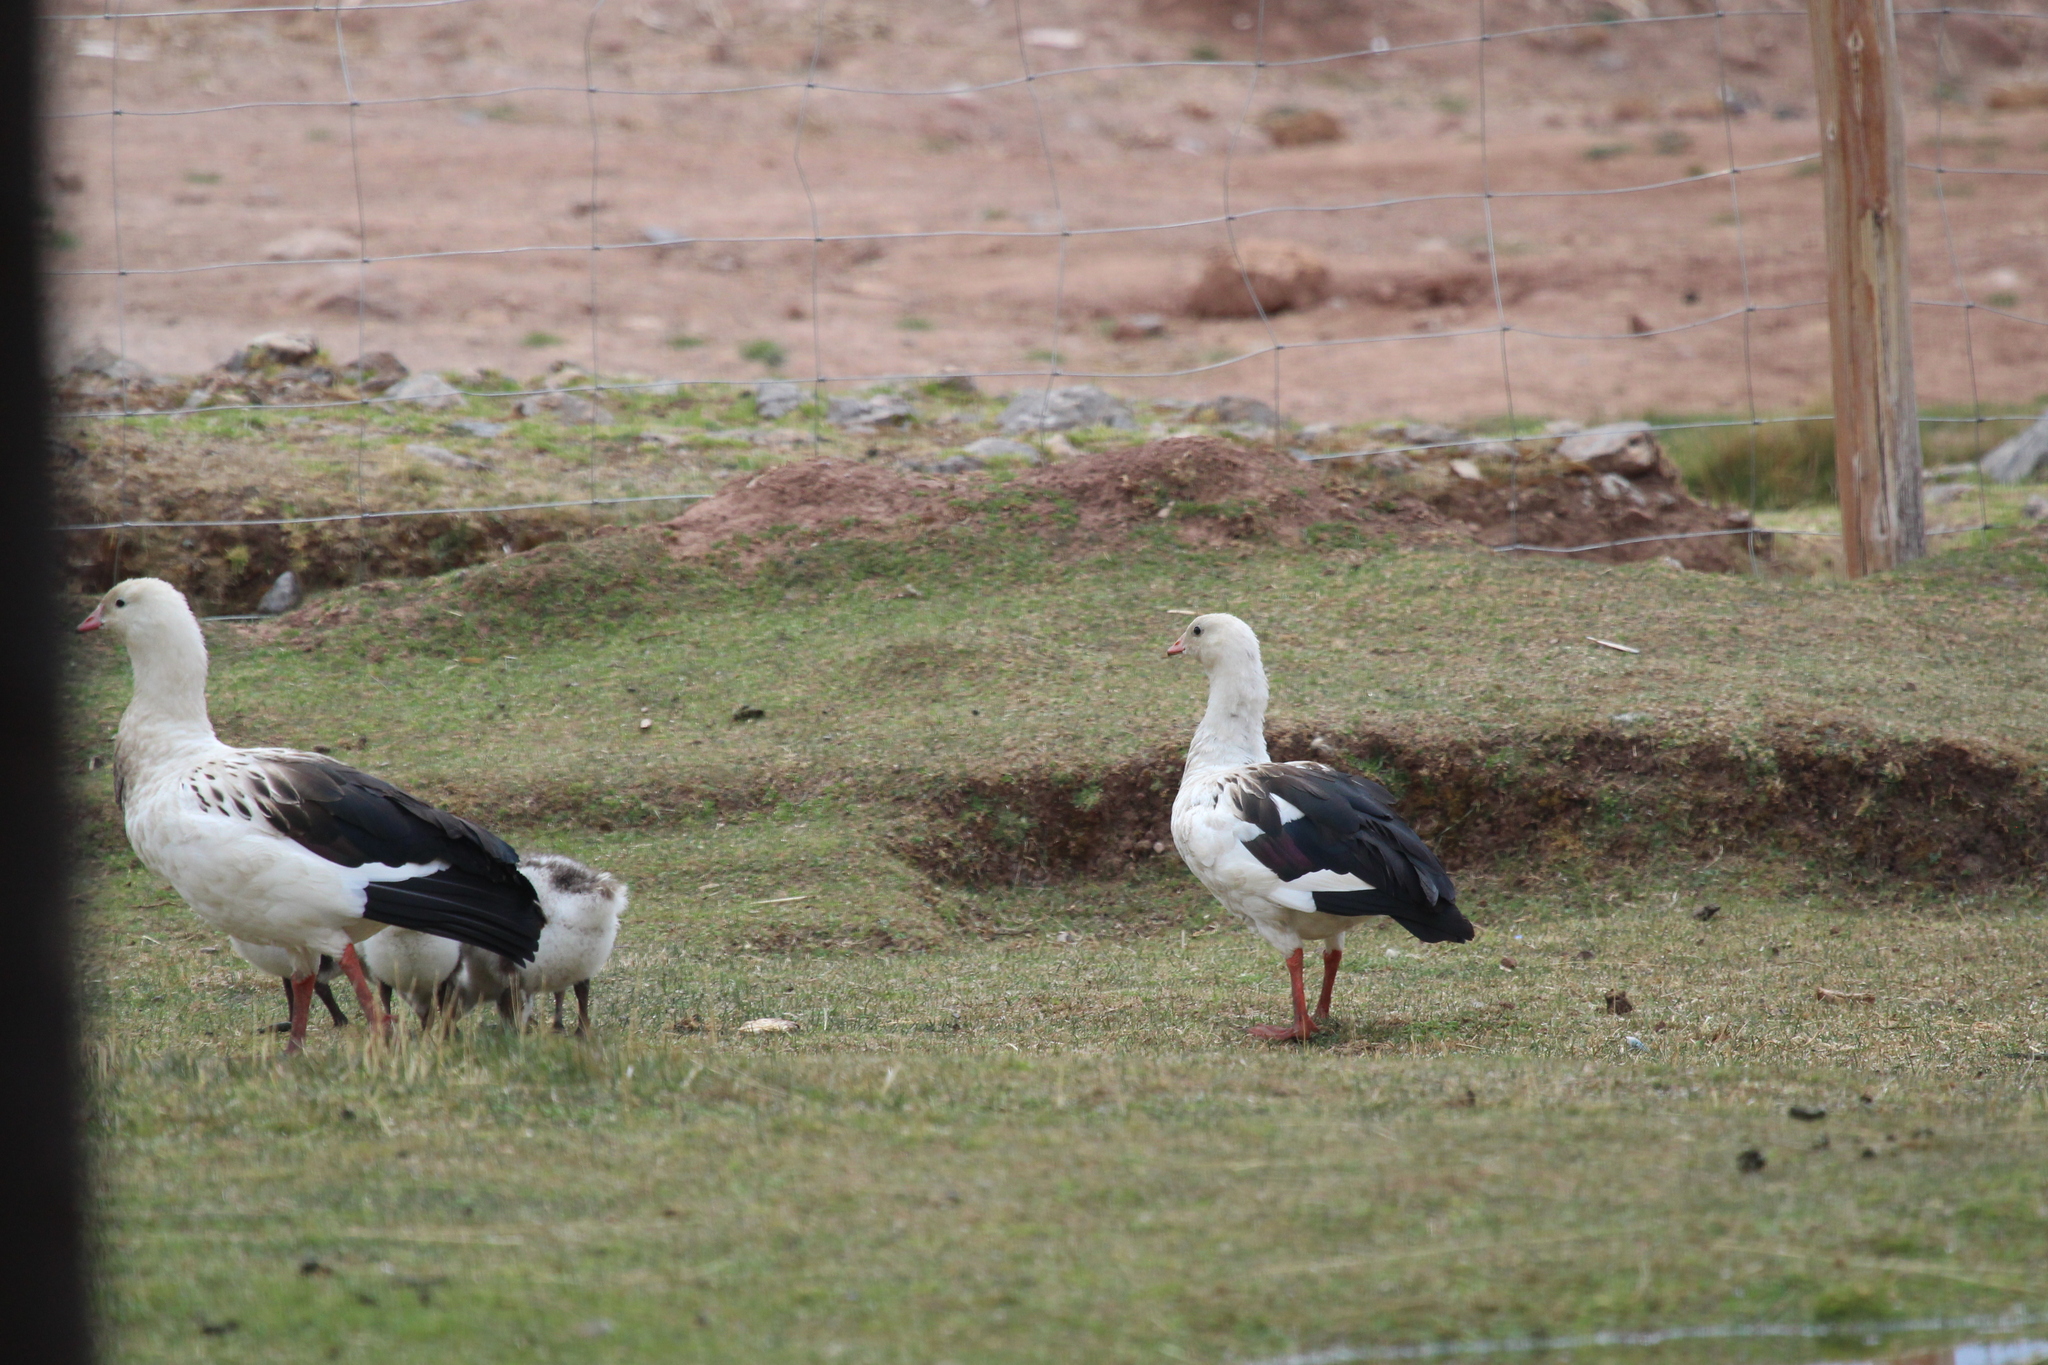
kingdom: Animalia
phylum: Chordata
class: Aves
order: Anseriformes
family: Anatidae
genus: Chloephaga
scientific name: Chloephaga melanoptera
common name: Andean goose
